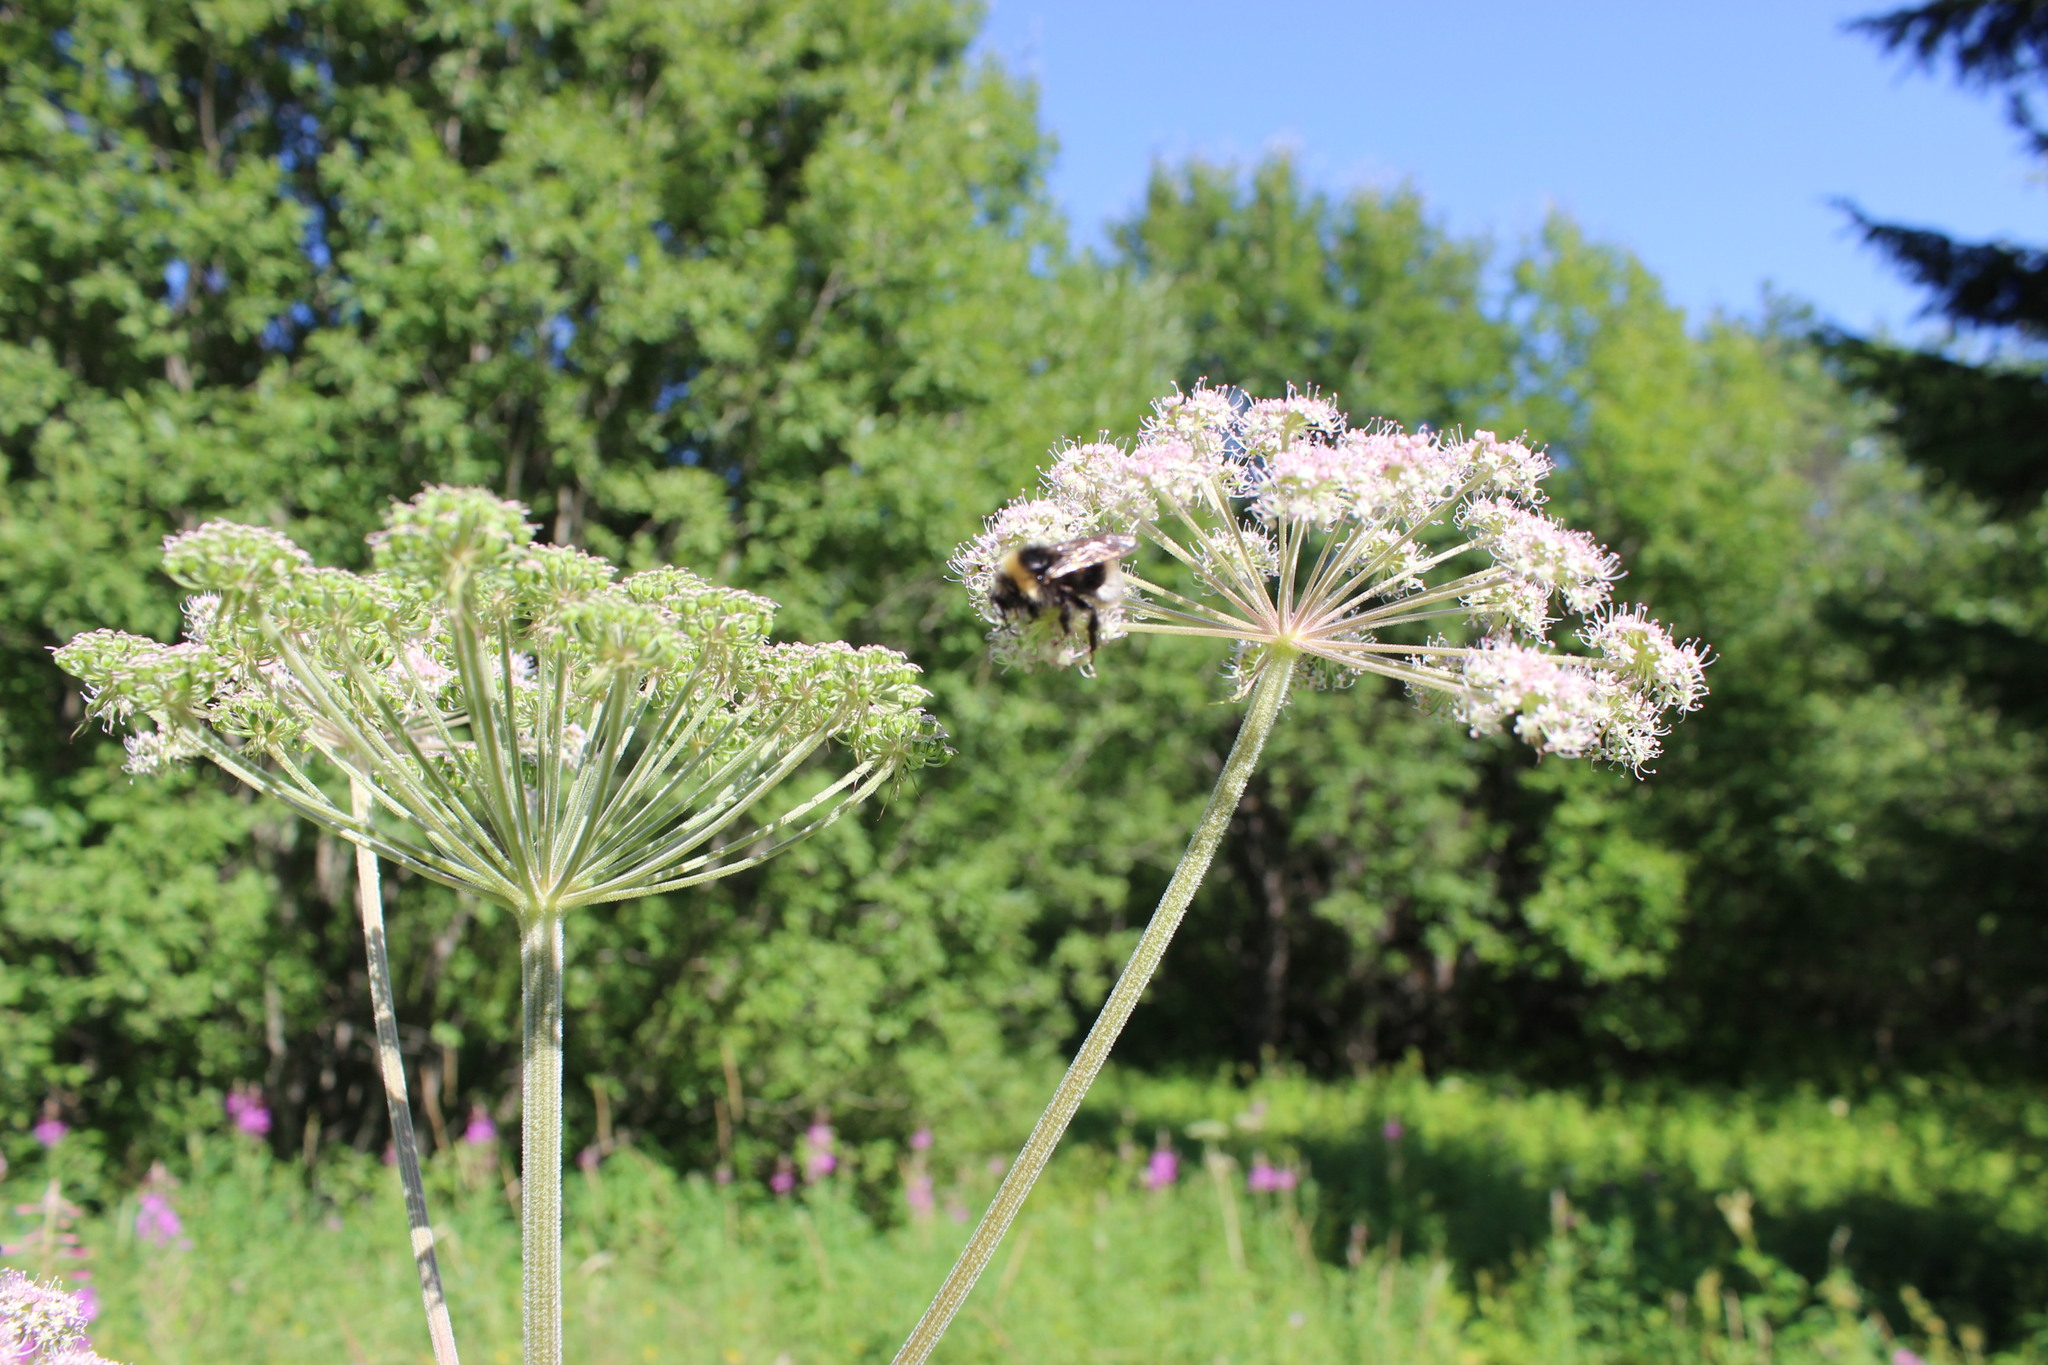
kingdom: Plantae
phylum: Tracheophyta
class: Magnoliopsida
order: Apiales
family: Apiaceae
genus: Angelica
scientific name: Angelica sylvestris
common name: Wild angelica
